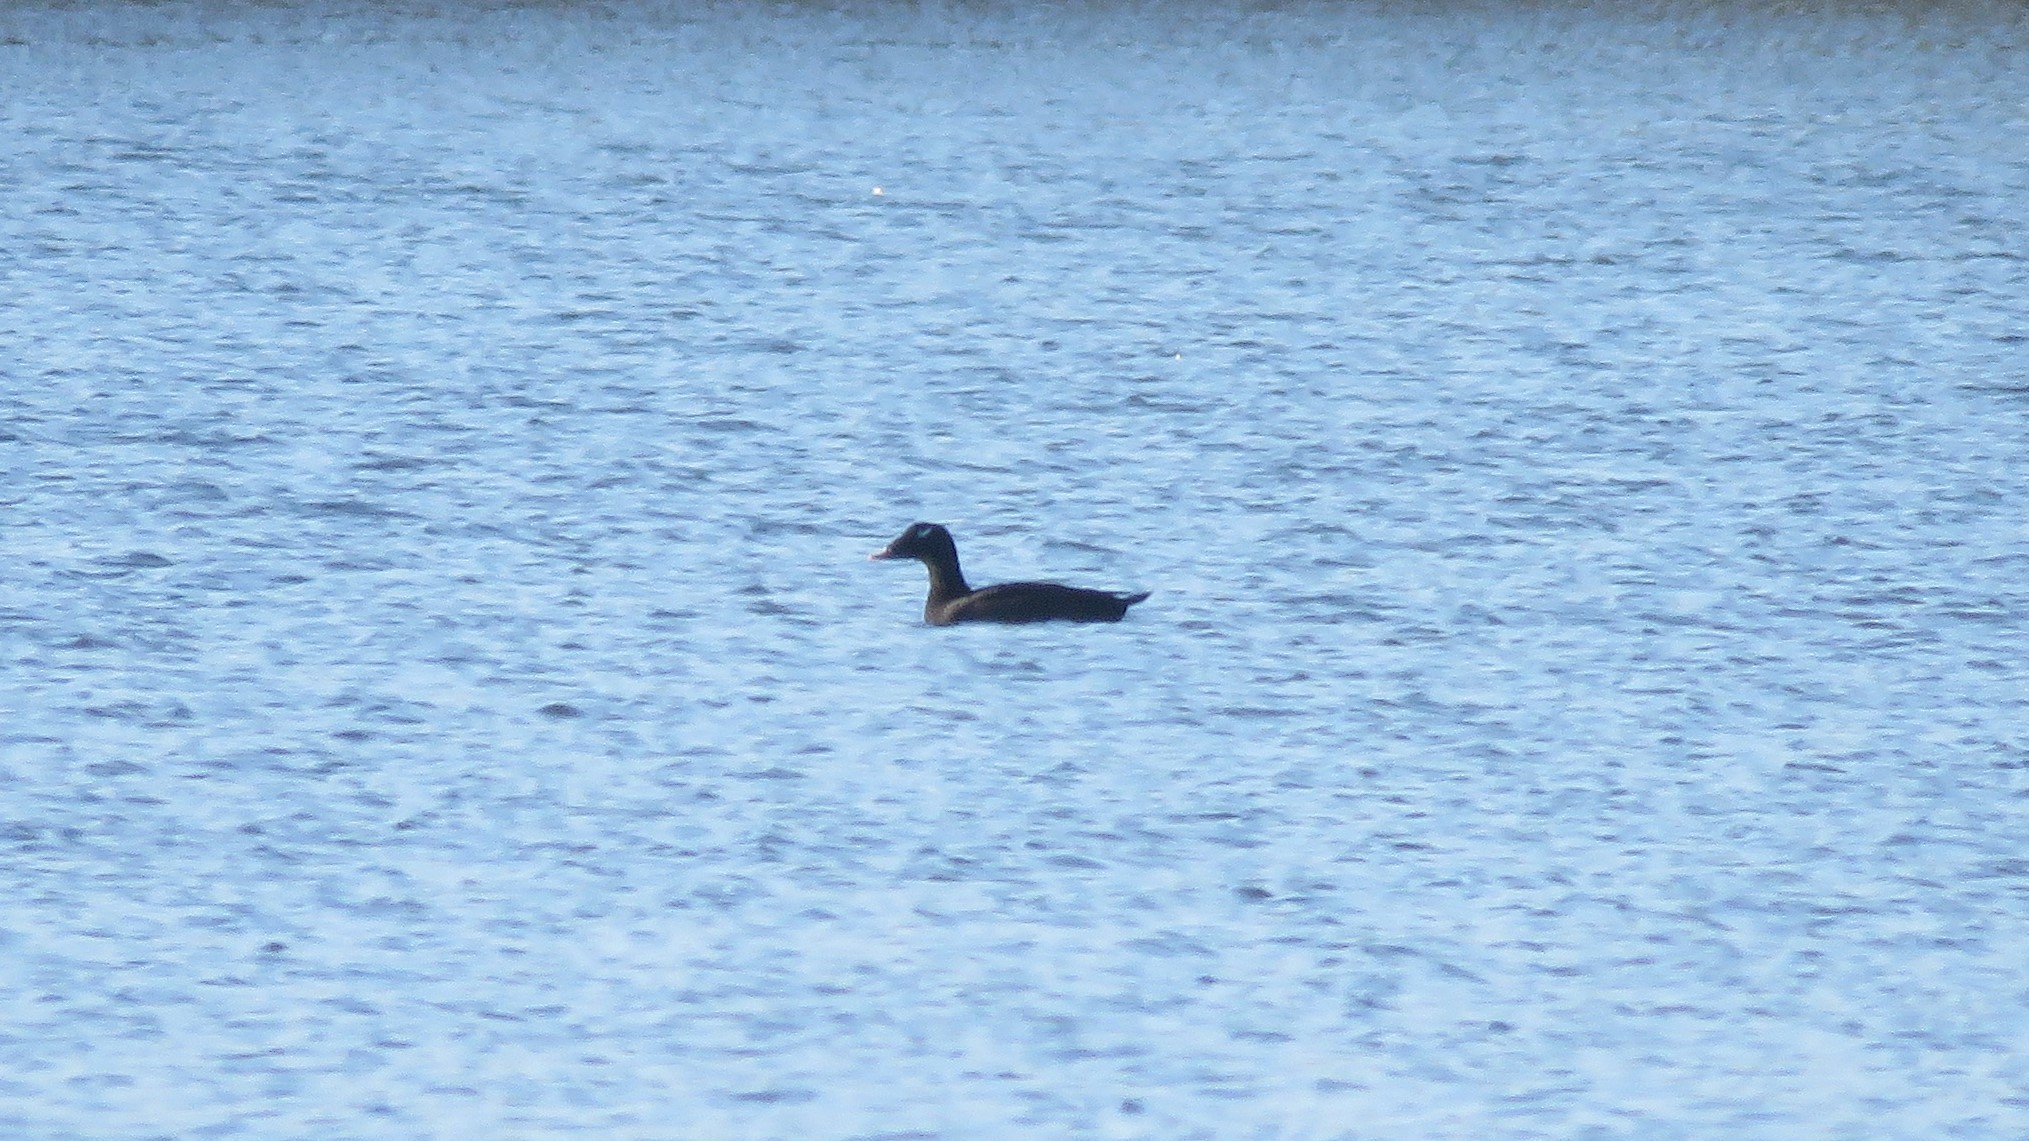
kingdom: Animalia
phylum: Chordata
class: Aves
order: Anseriformes
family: Anatidae
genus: Melanitta
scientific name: Melanitta deglandi
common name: White-winged scoter
